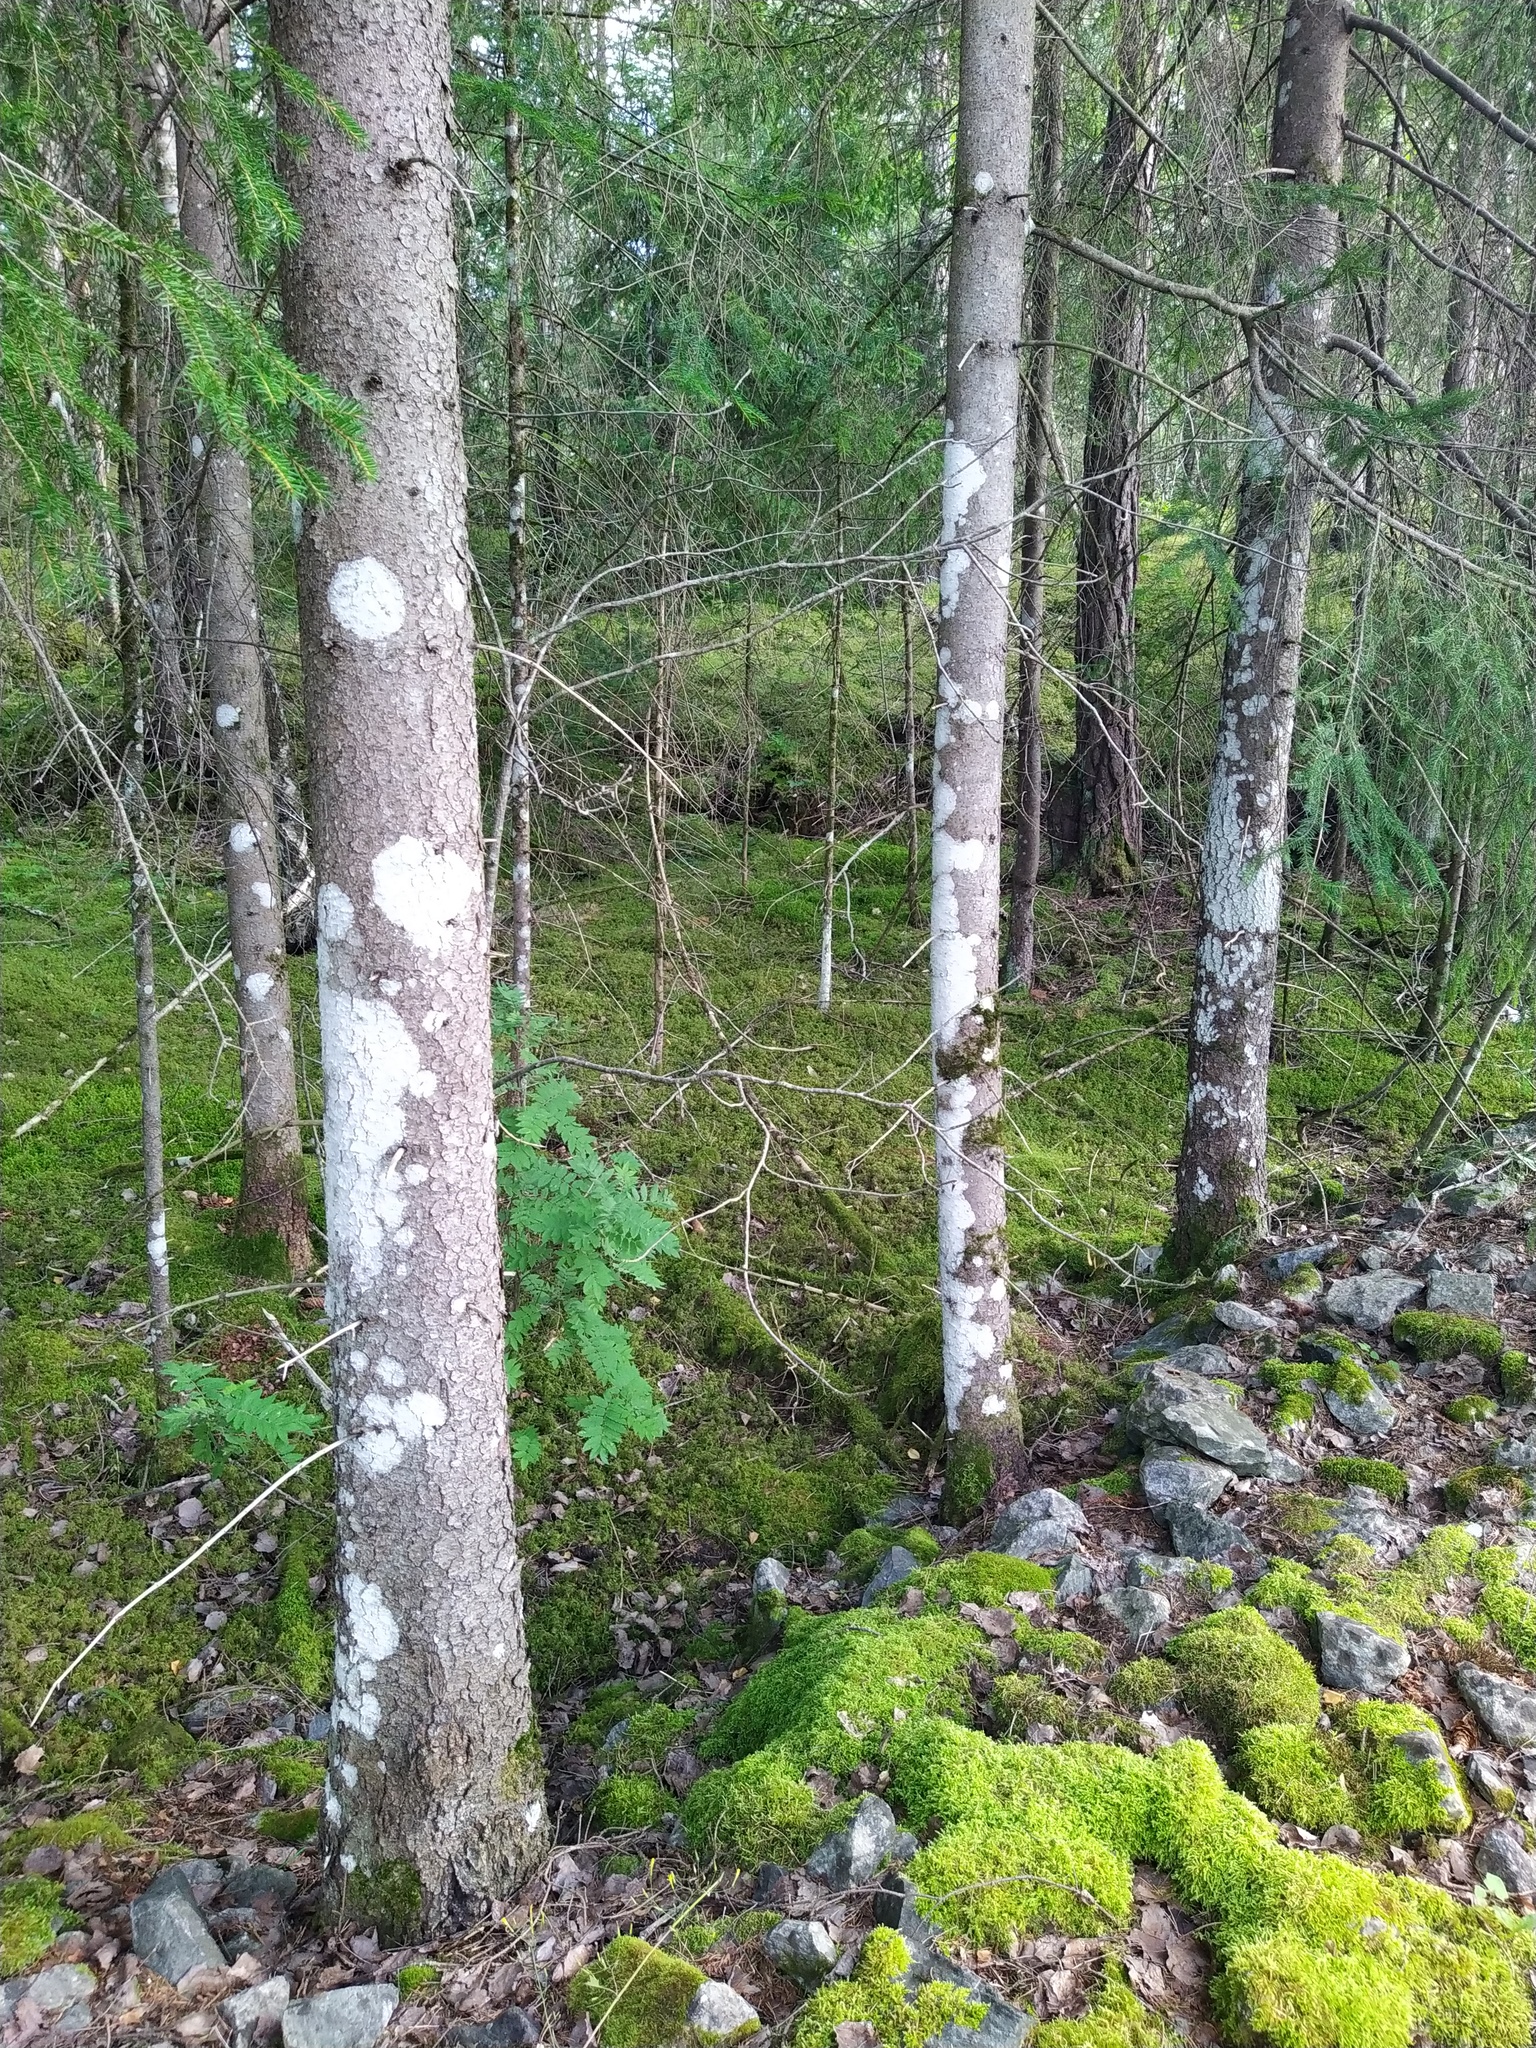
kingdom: Fungi
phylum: Ascomycota
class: Lecanoromycetes
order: Ostropales
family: Phlyctidaceae
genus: Phlyctis
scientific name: Phlyctis argena
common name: Whitewash lichen
